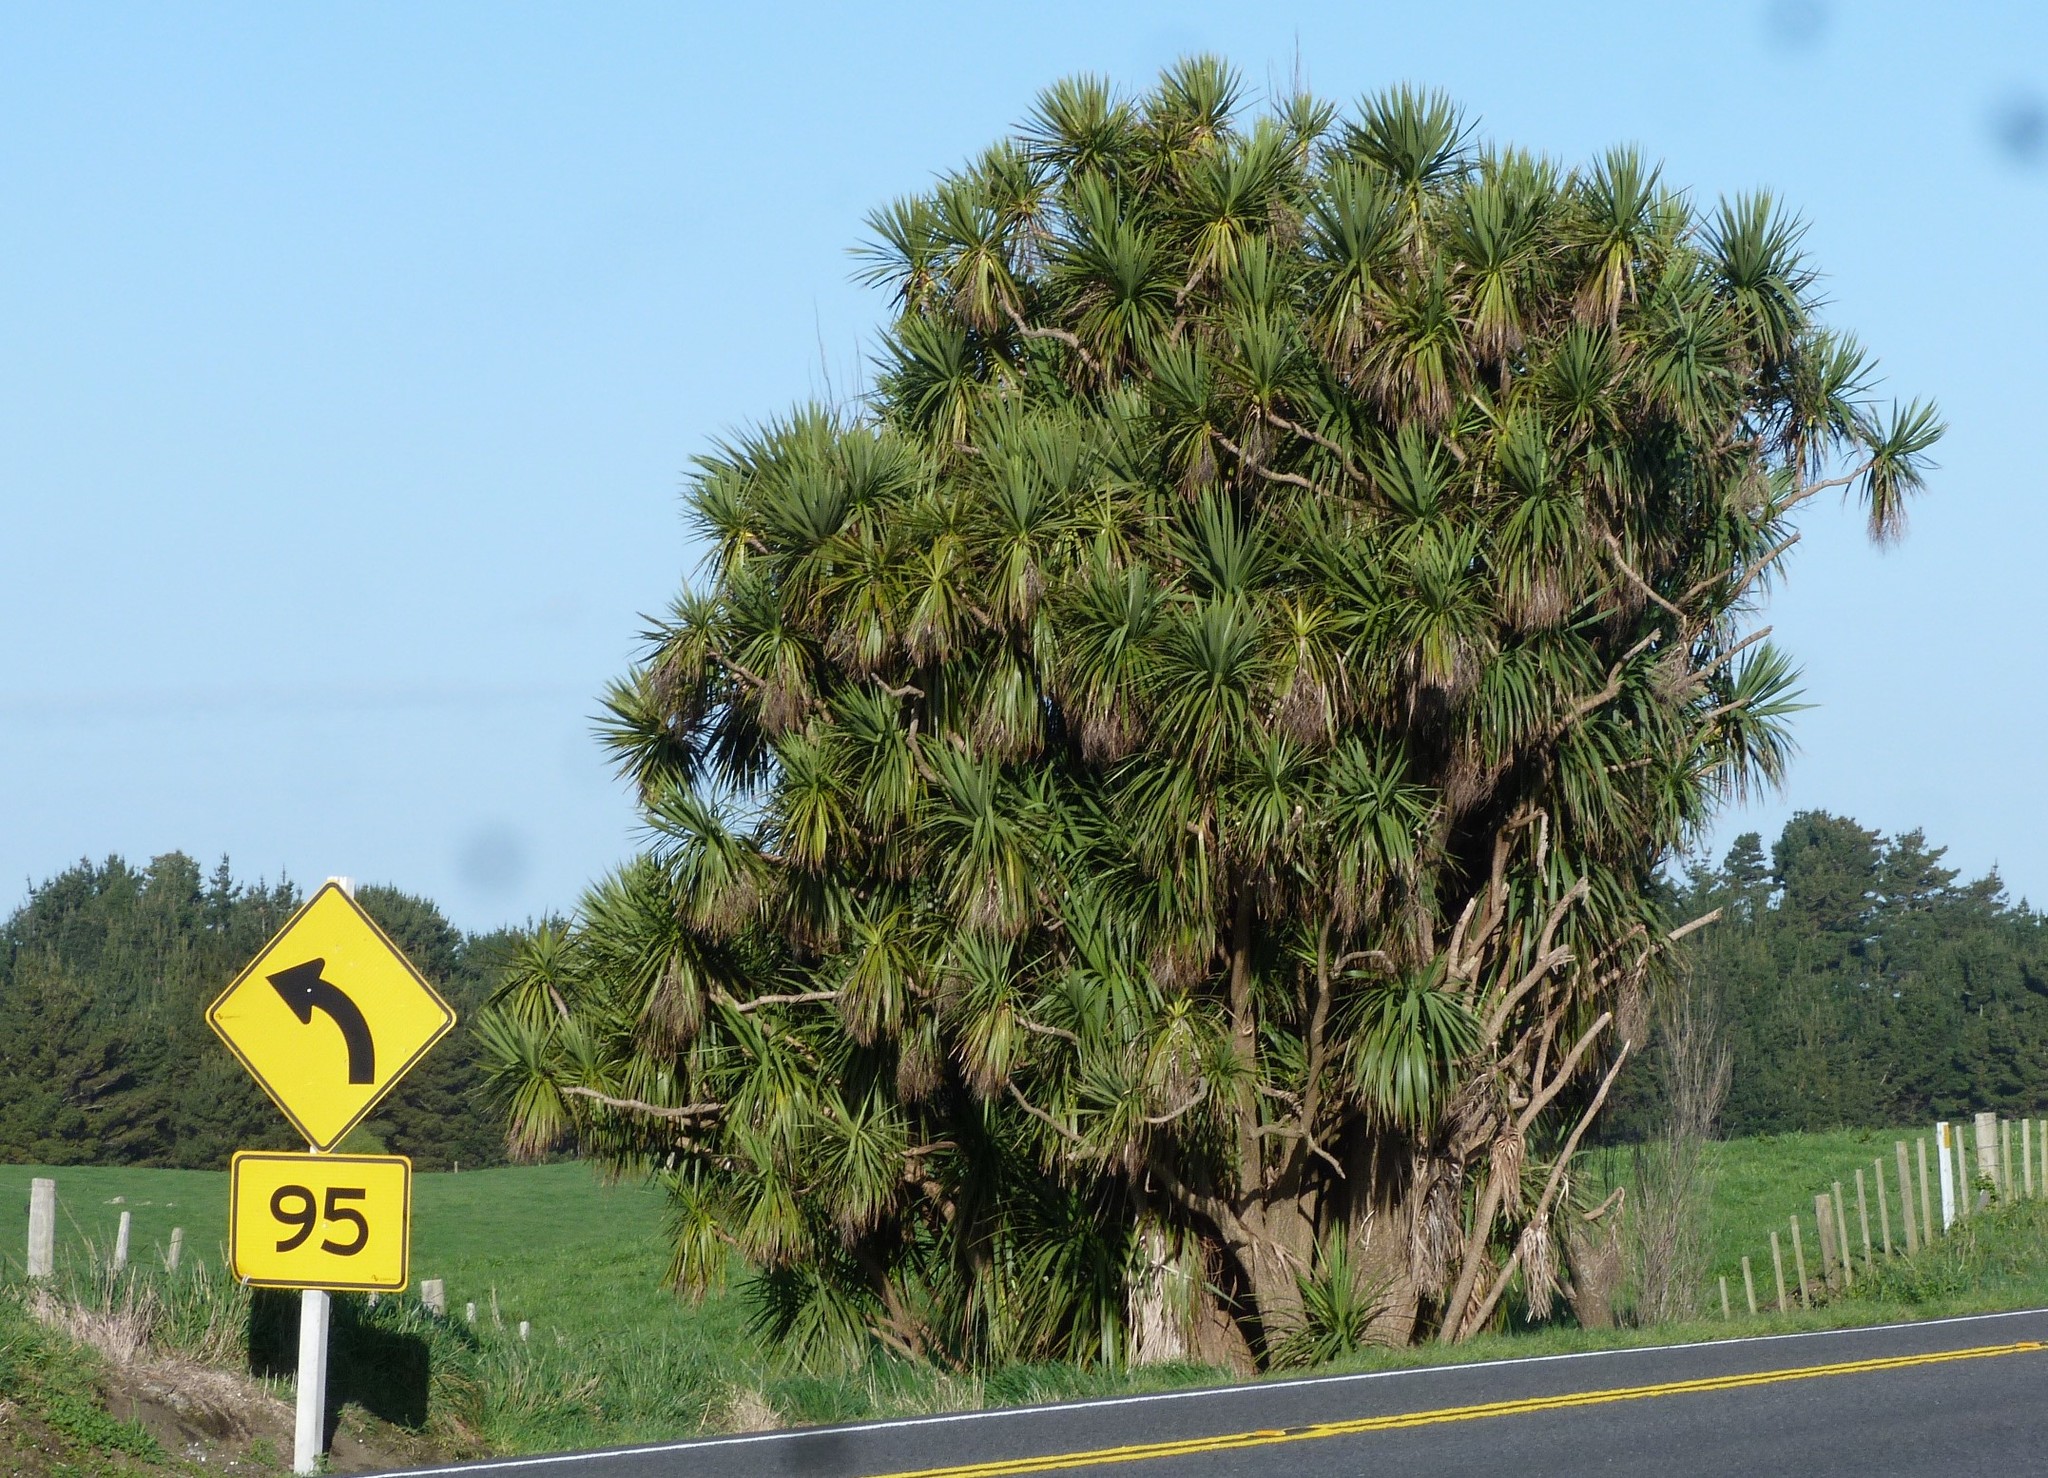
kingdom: Plantae
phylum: Tracheophyta
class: Liliopsida
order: Asparagales
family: Asparagaceae
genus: Cordyline
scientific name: Cordyline australis
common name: Cabbage-palm
